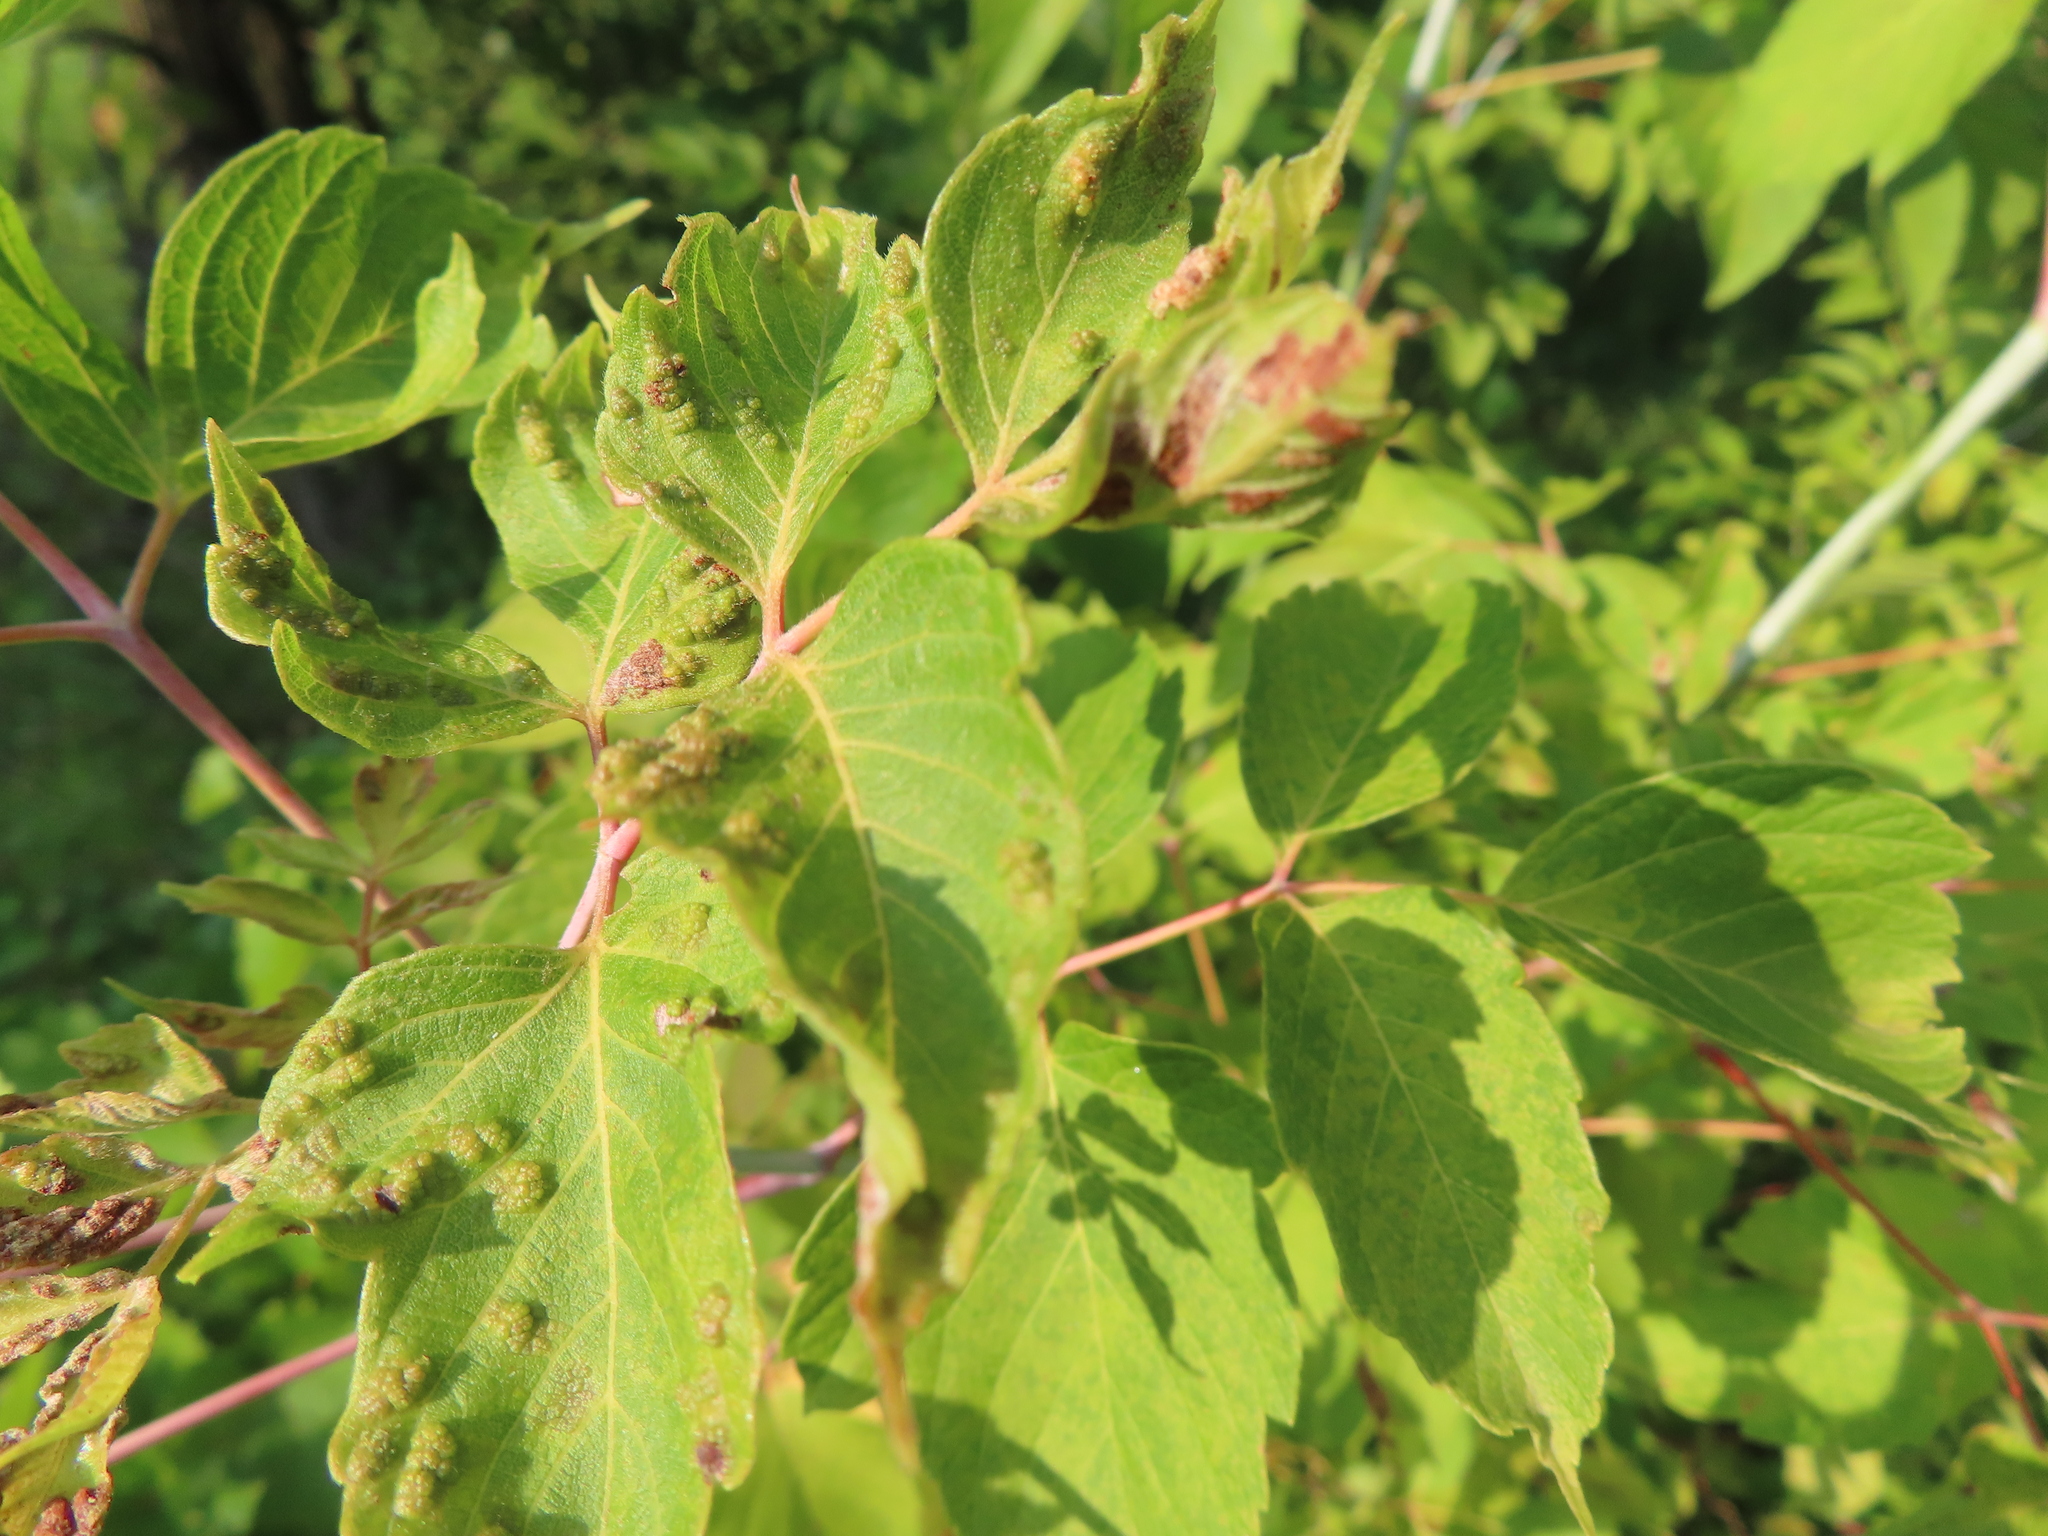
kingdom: Animalia
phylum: Arthropoda
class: Arachnida
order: Trombidiformes
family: Eriophyidae
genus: Aceria
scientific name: Aceria
